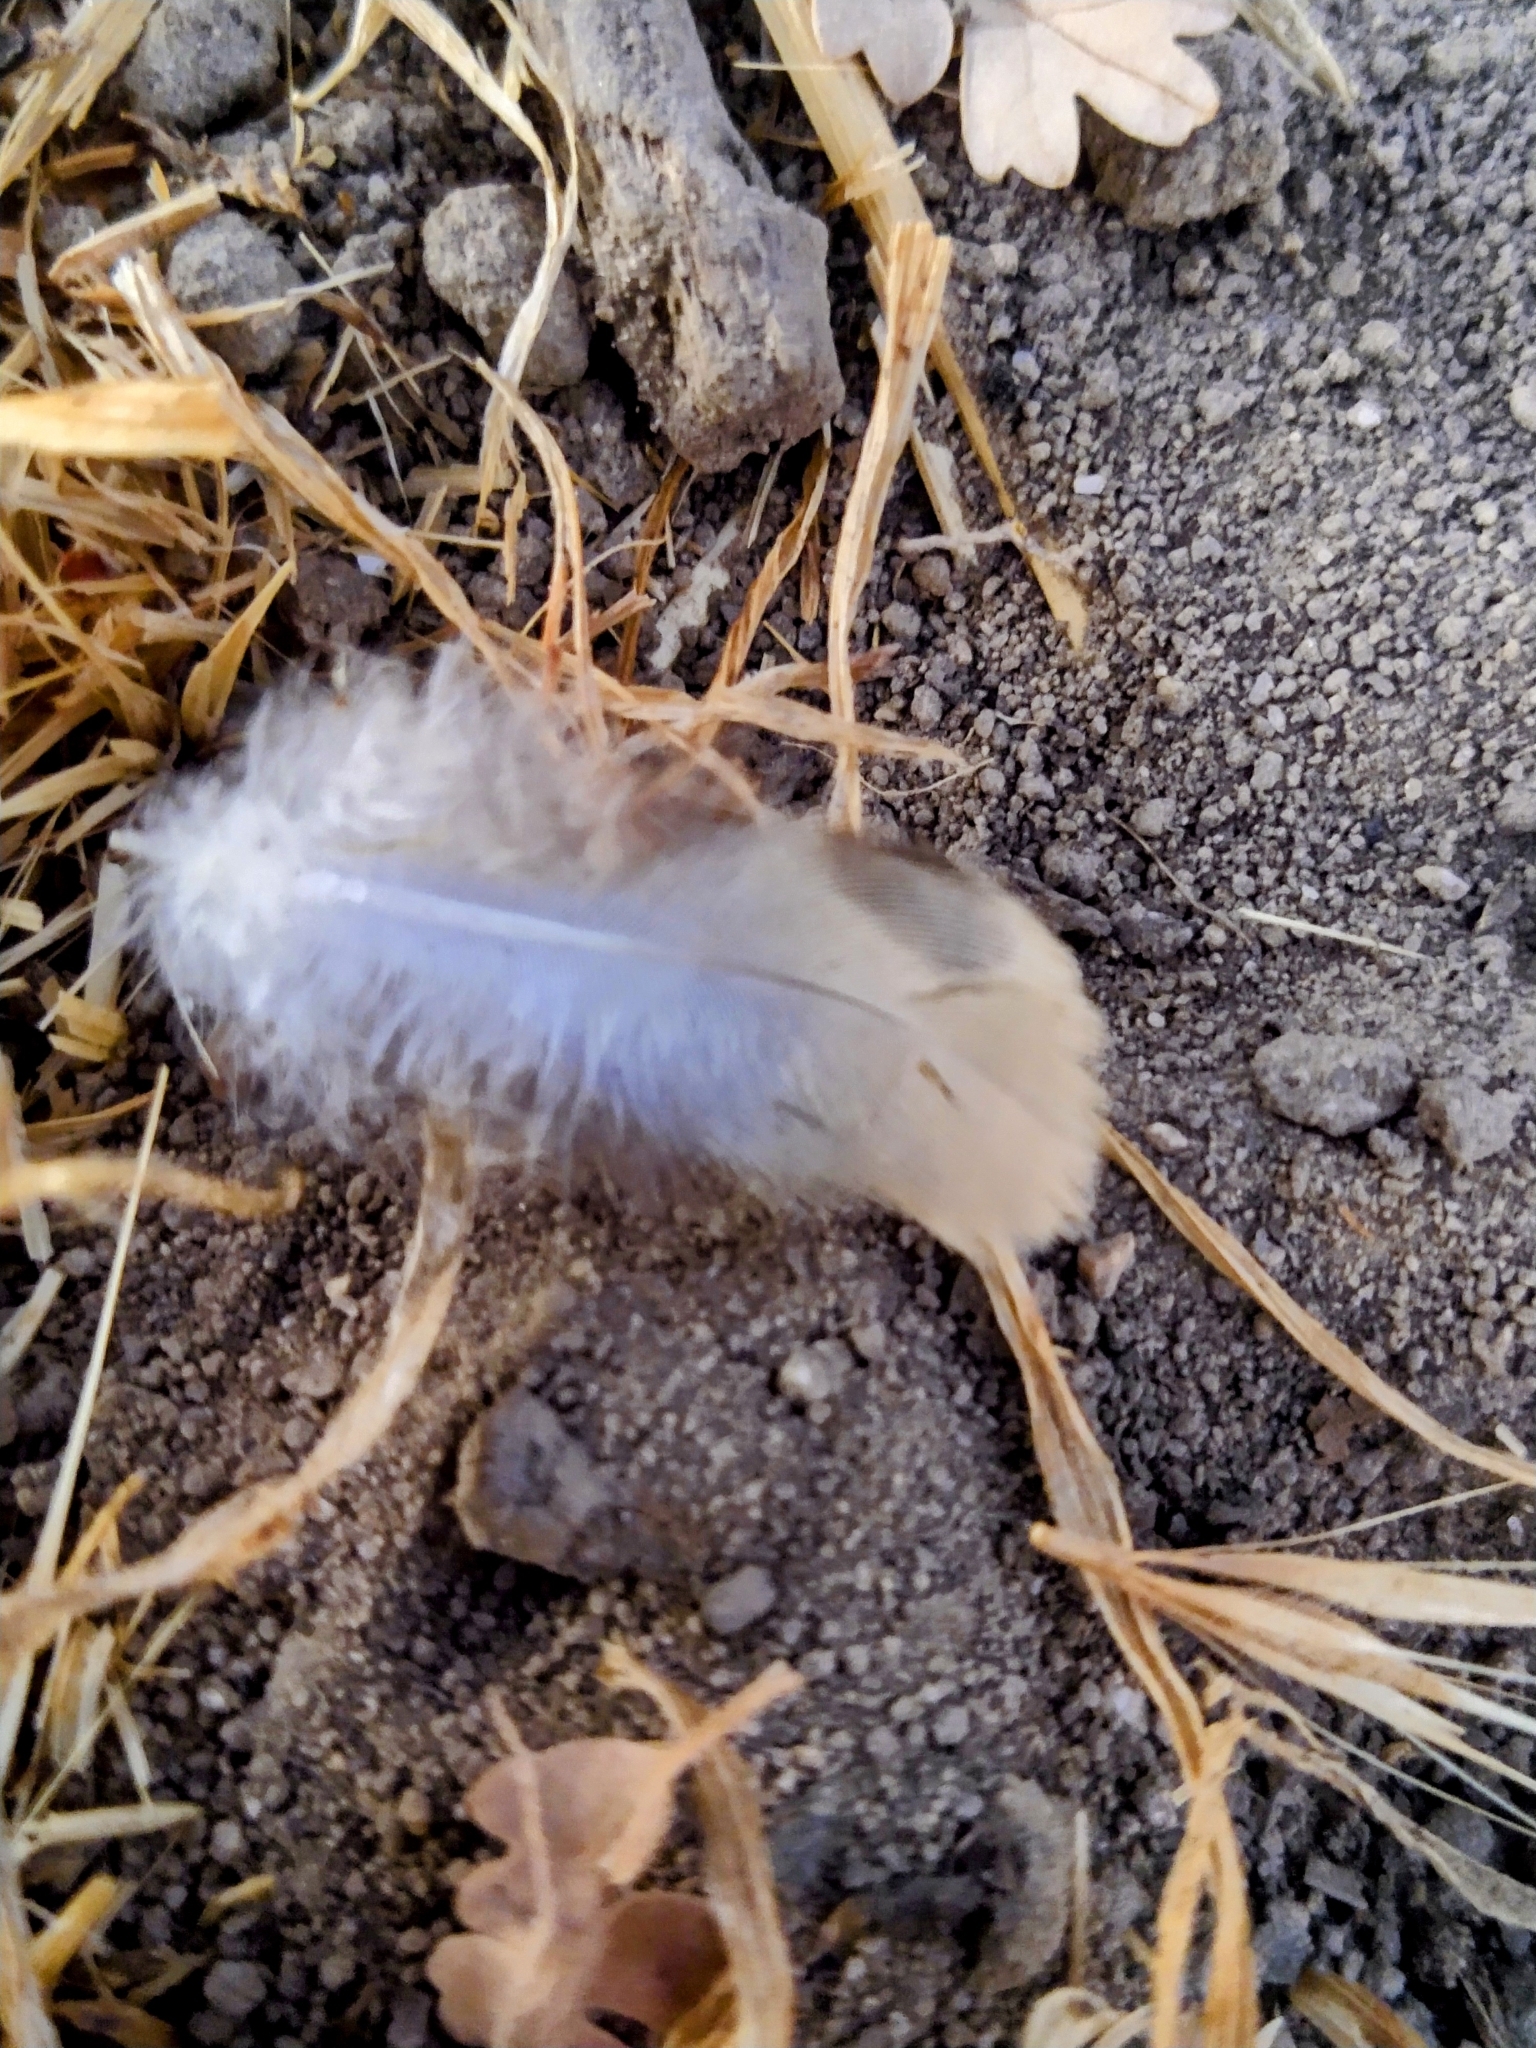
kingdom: Animalia
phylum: Chordata
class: Aves
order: Columbiformes
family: Columbidae
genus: Zenaida
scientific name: Zenaida macroura
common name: Mourning dove
